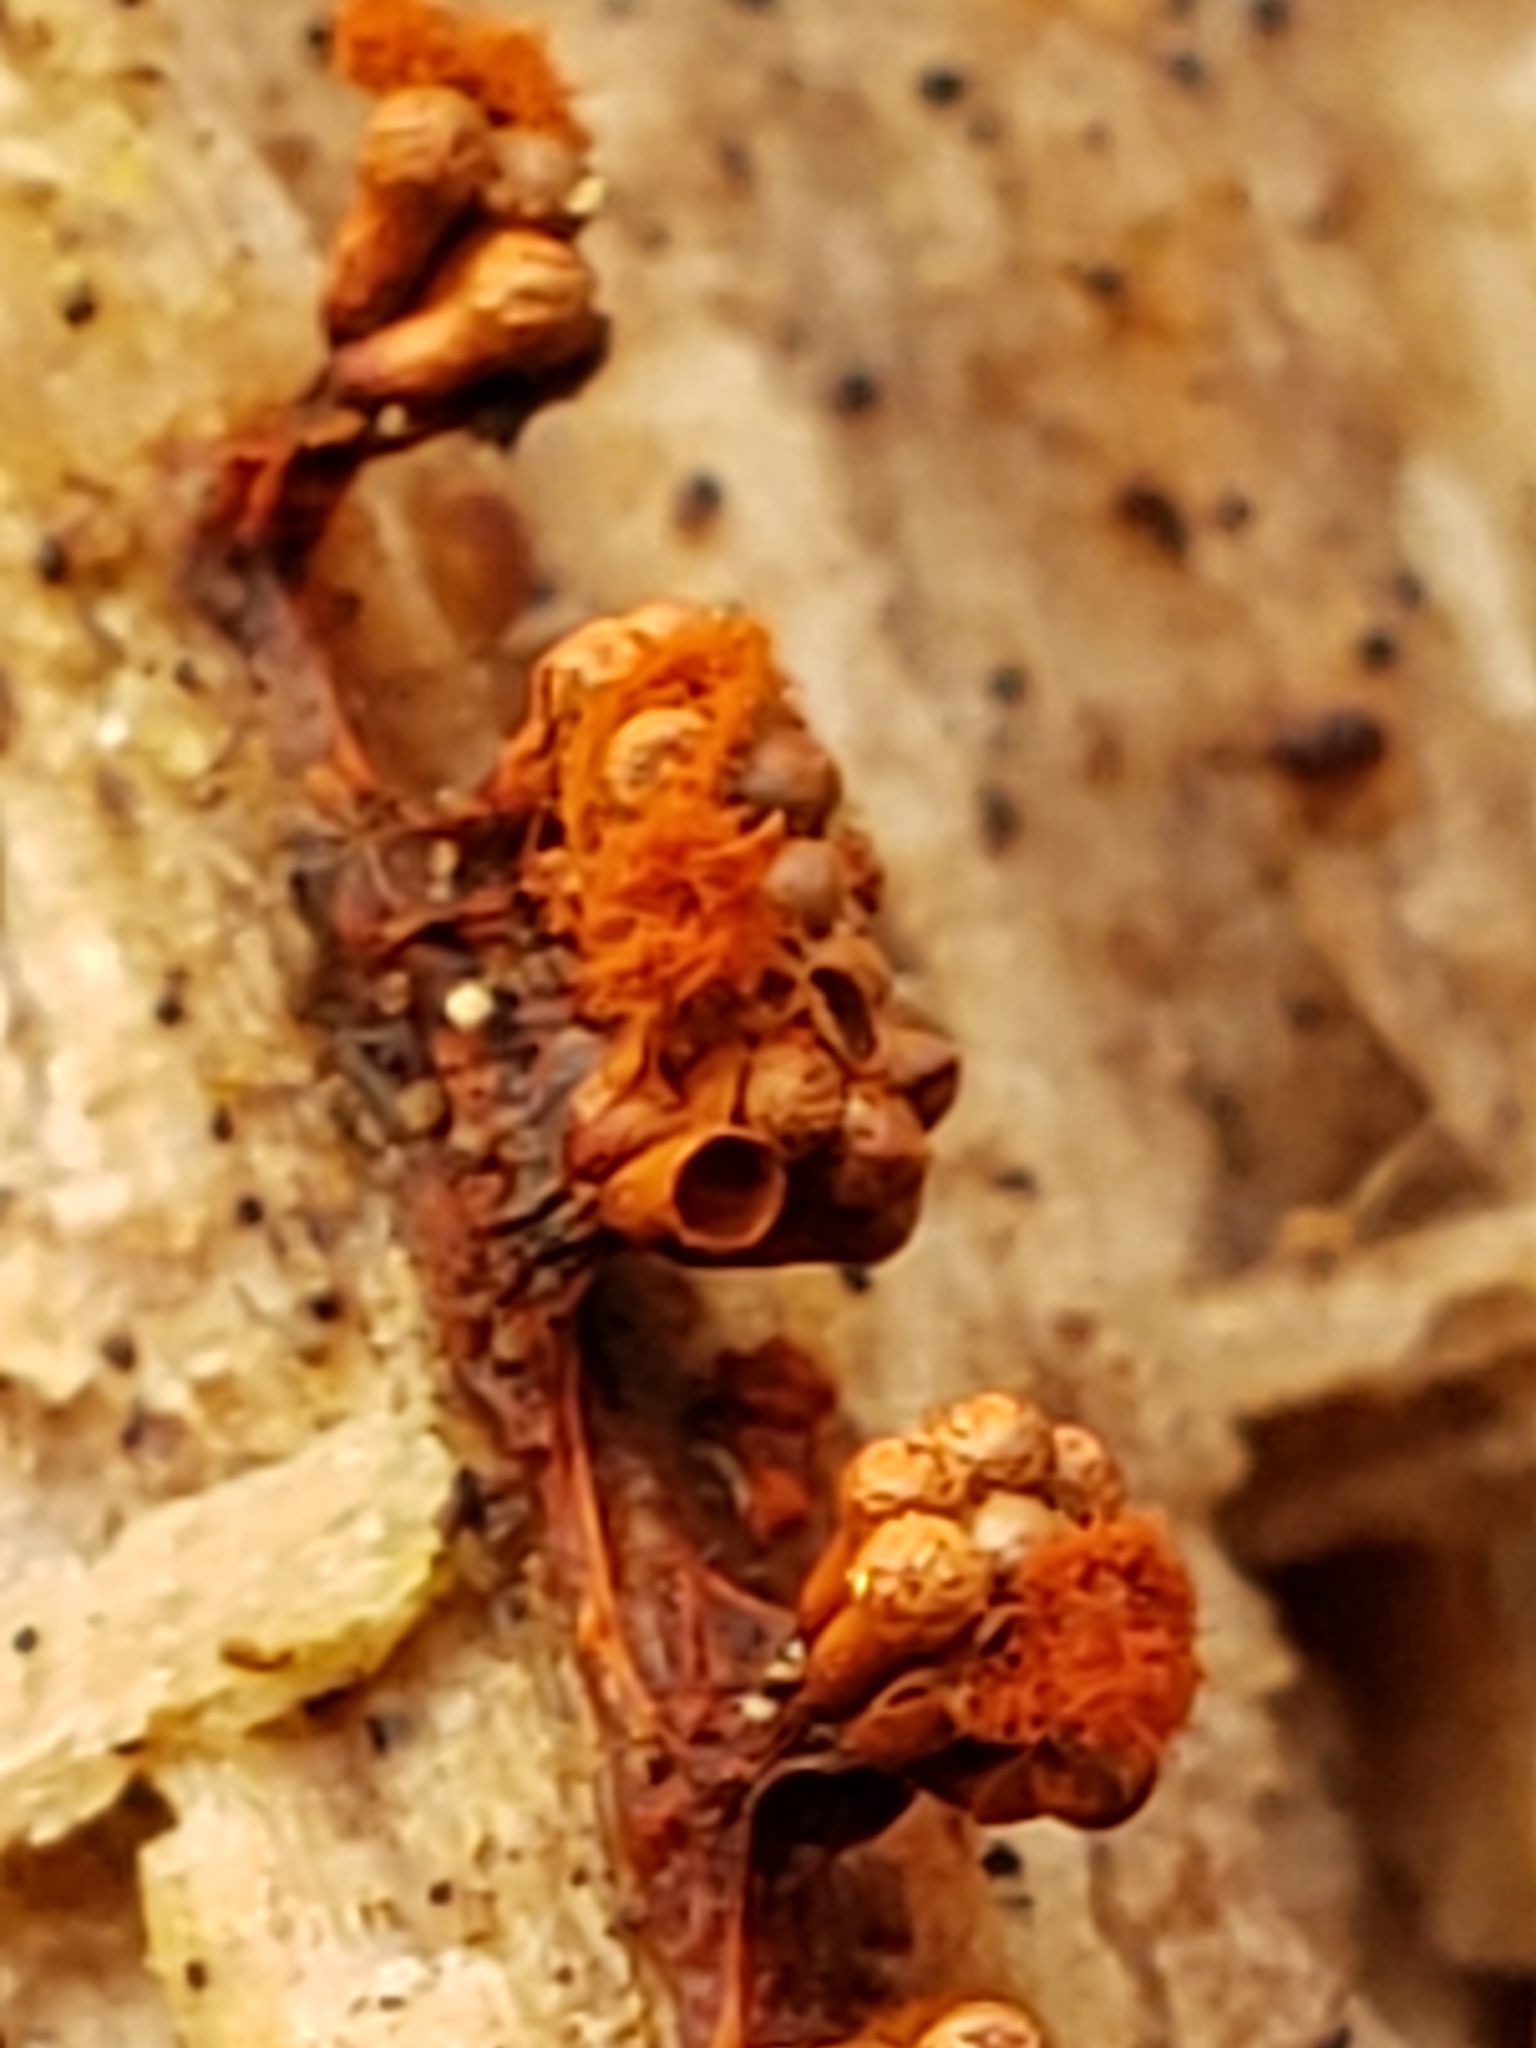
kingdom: Protozoa
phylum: Mycetozoa
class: Myxomycetes
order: Trichiales
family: Trichiaceae
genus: Metatrichia
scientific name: Metatrichia vesparia
